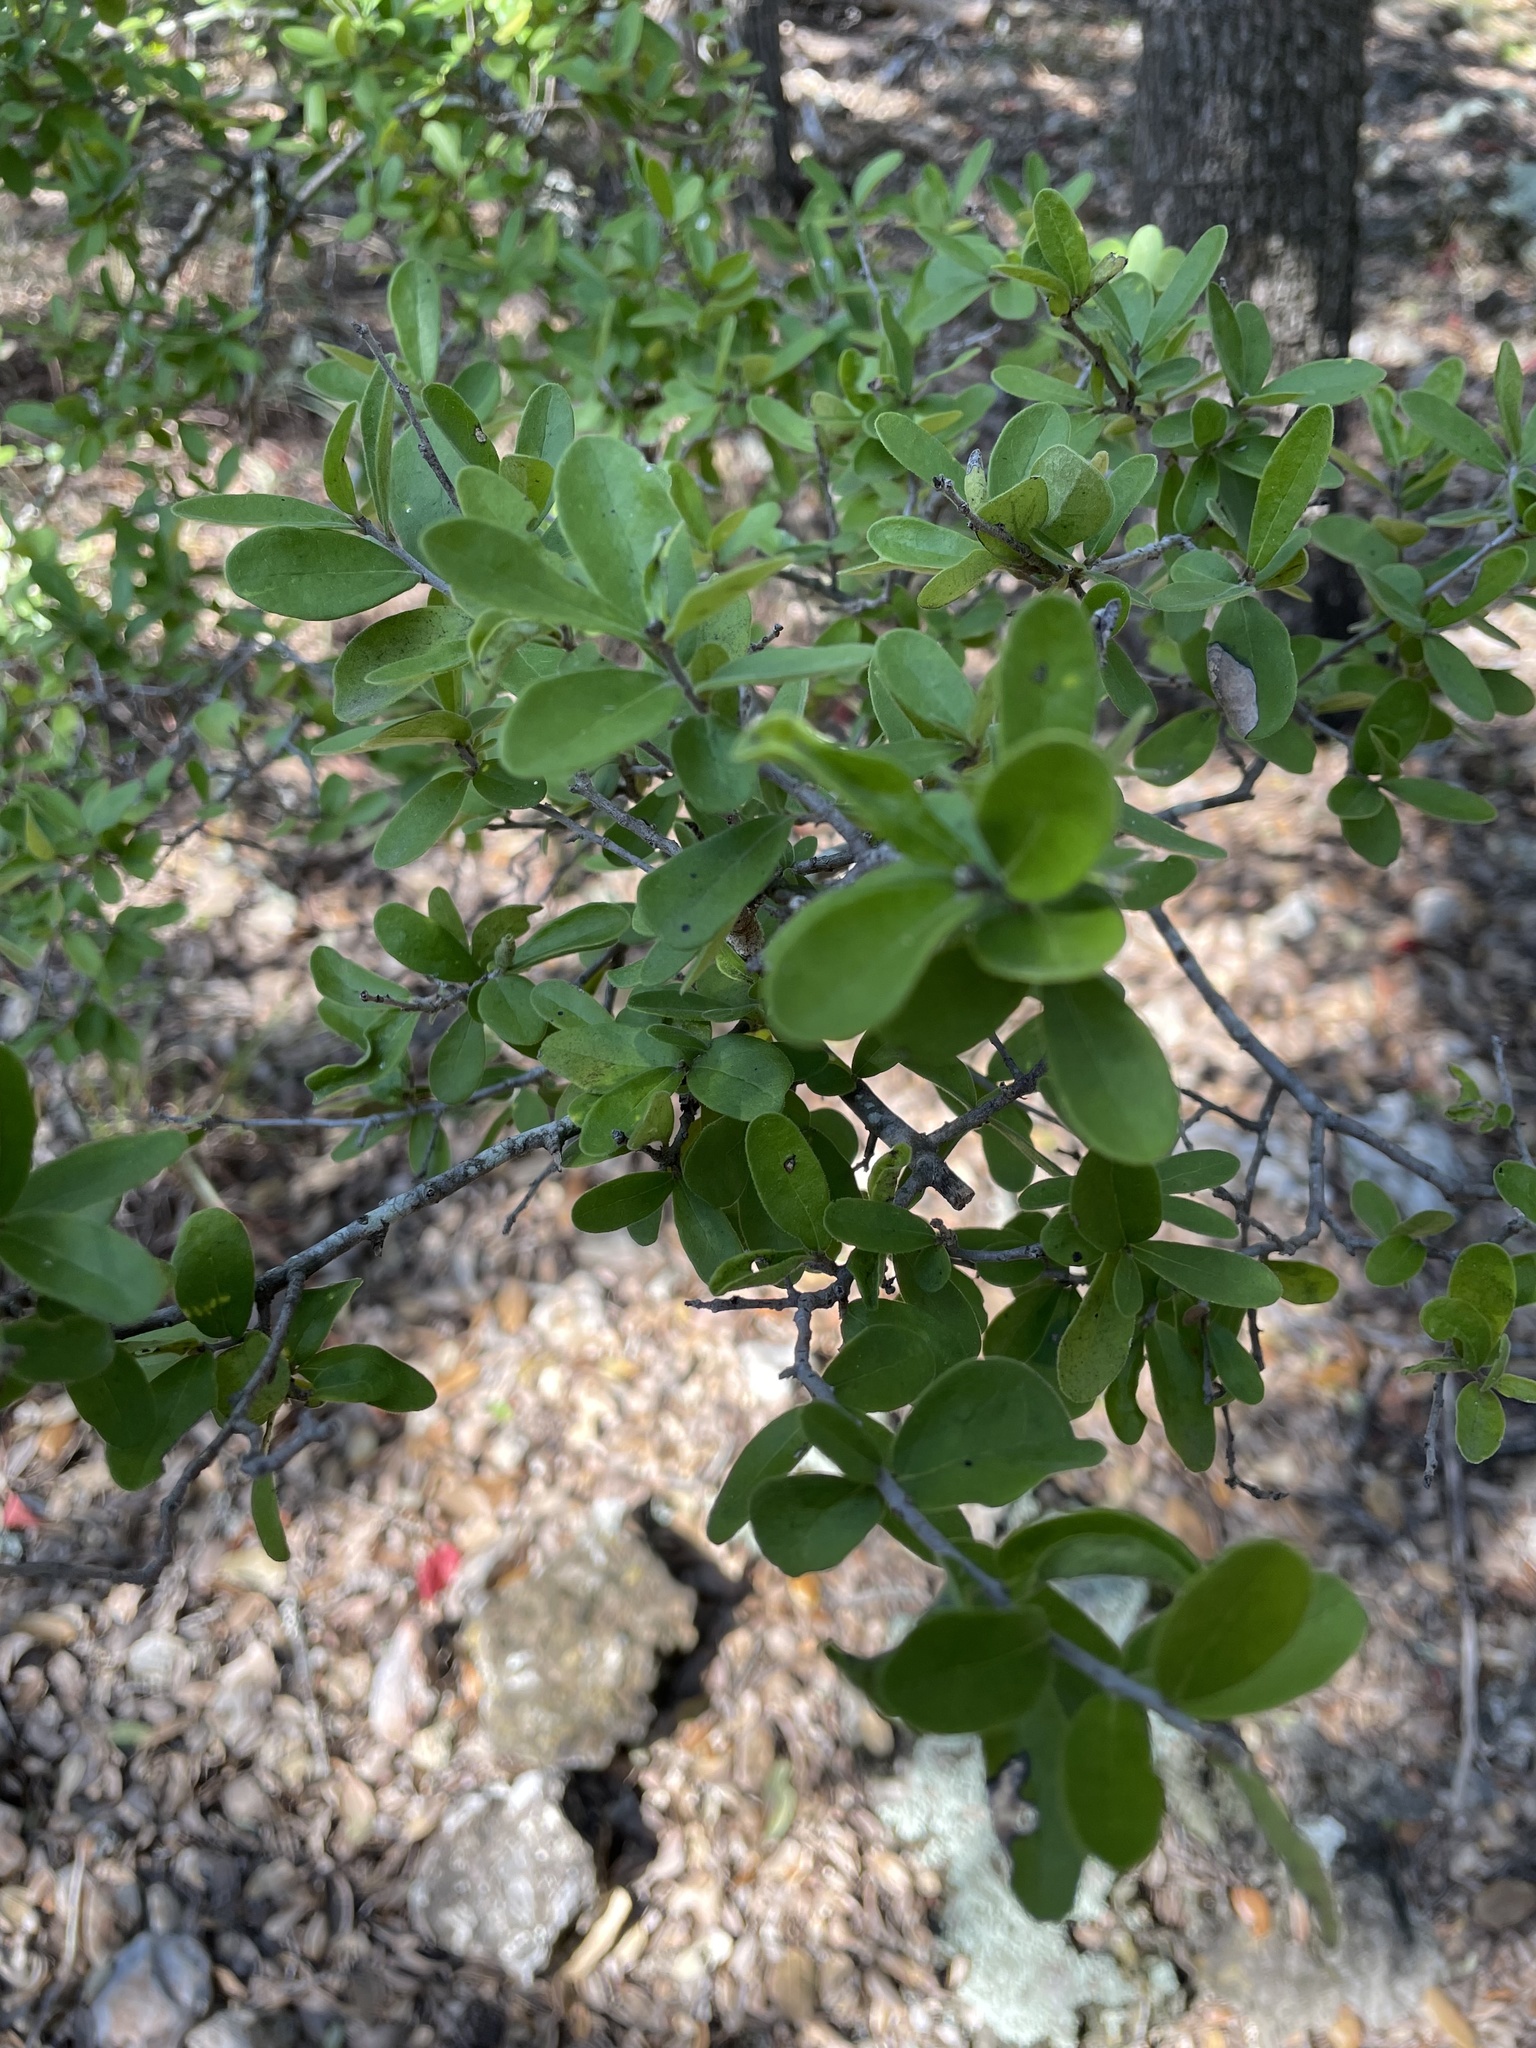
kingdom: Plantae
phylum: Tracheophyta
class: Magnoliopsida
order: Ericales
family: Ebenaceae
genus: Diospyros
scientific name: Diospyros texana
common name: Texas persimmon
